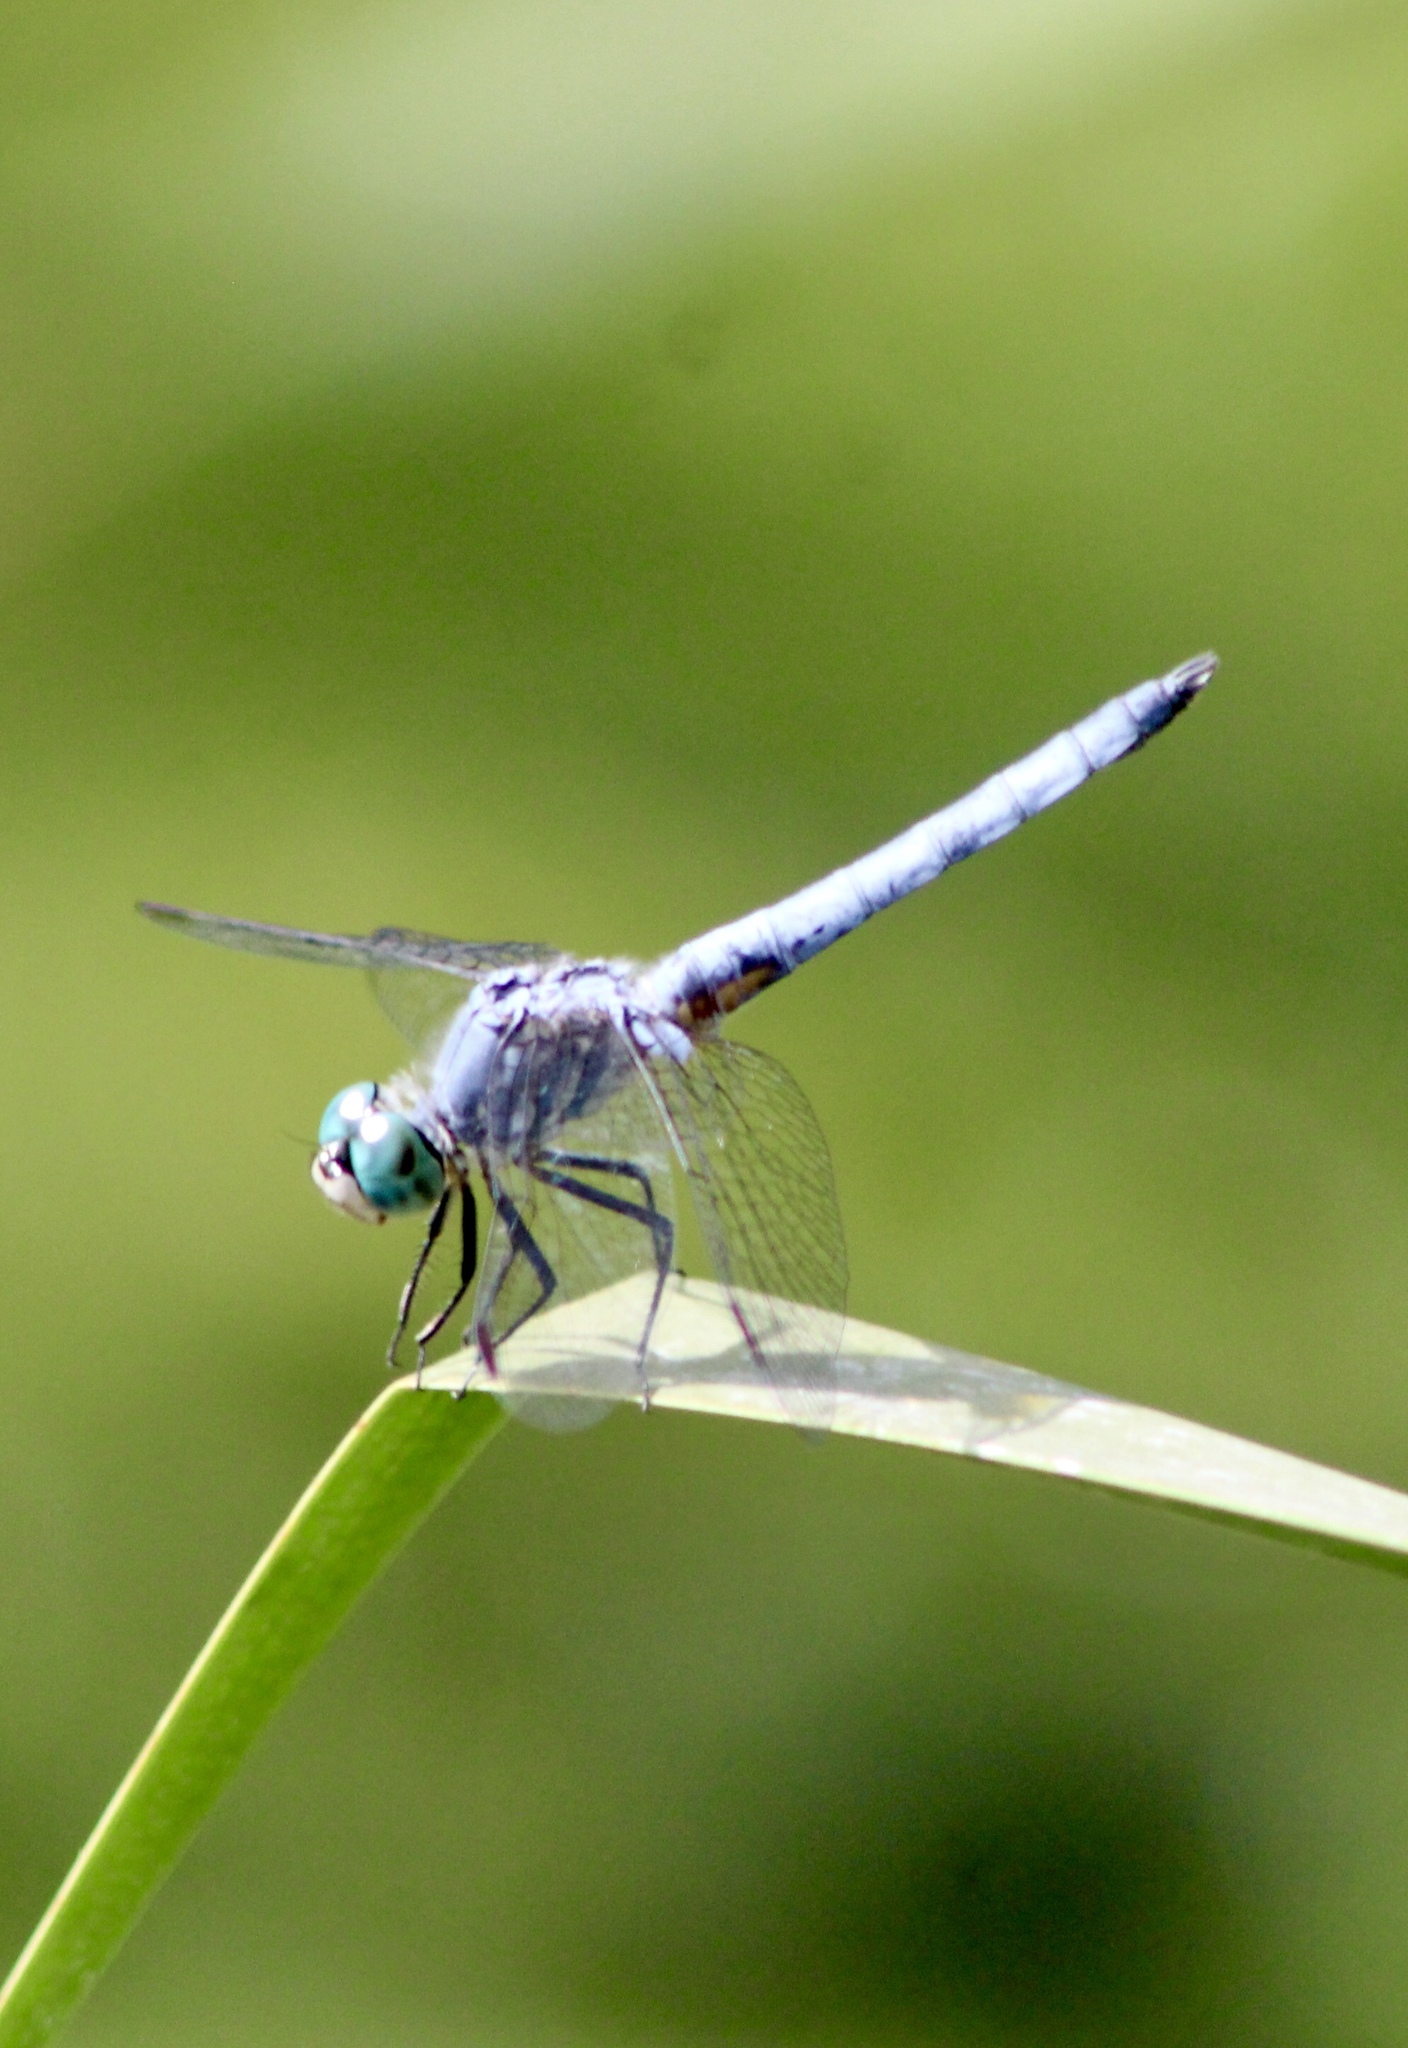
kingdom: Animalia
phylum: Arthropoda
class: Insecta
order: Odonata
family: Libellulidae
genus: Pachydiplax
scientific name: Pachydiplax longipennis
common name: Blue dasher
